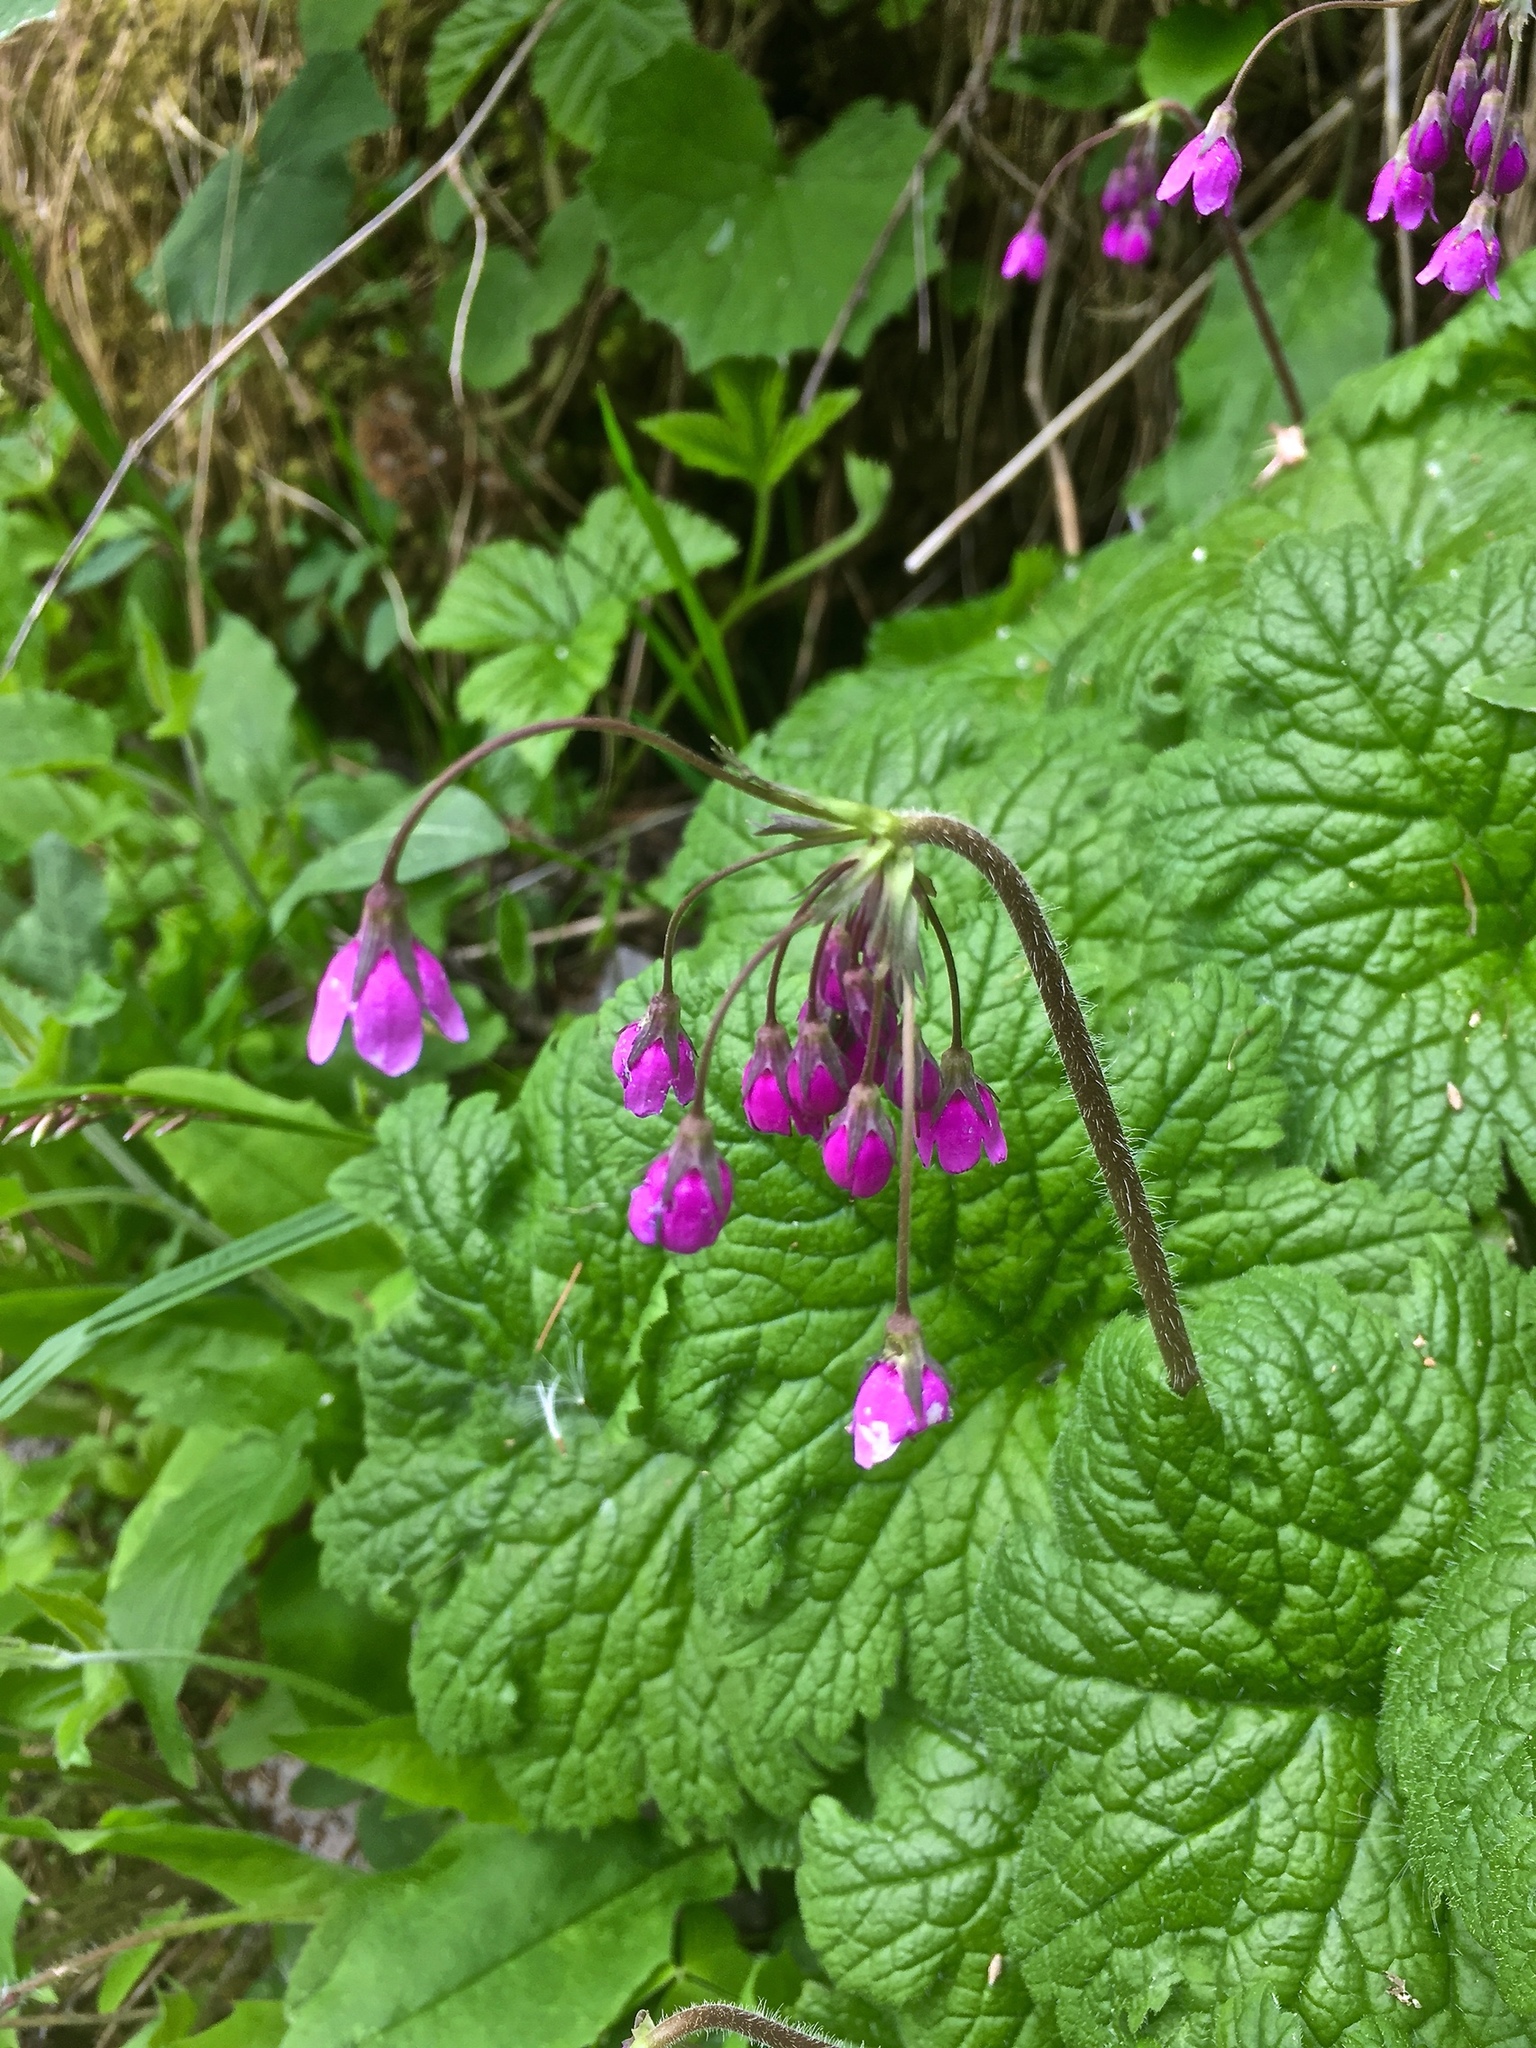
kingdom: Plantae
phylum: Tracheophyta
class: Magnoliopsida
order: Ericales
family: Primulaceae
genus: Primula
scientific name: Primula matthioli
